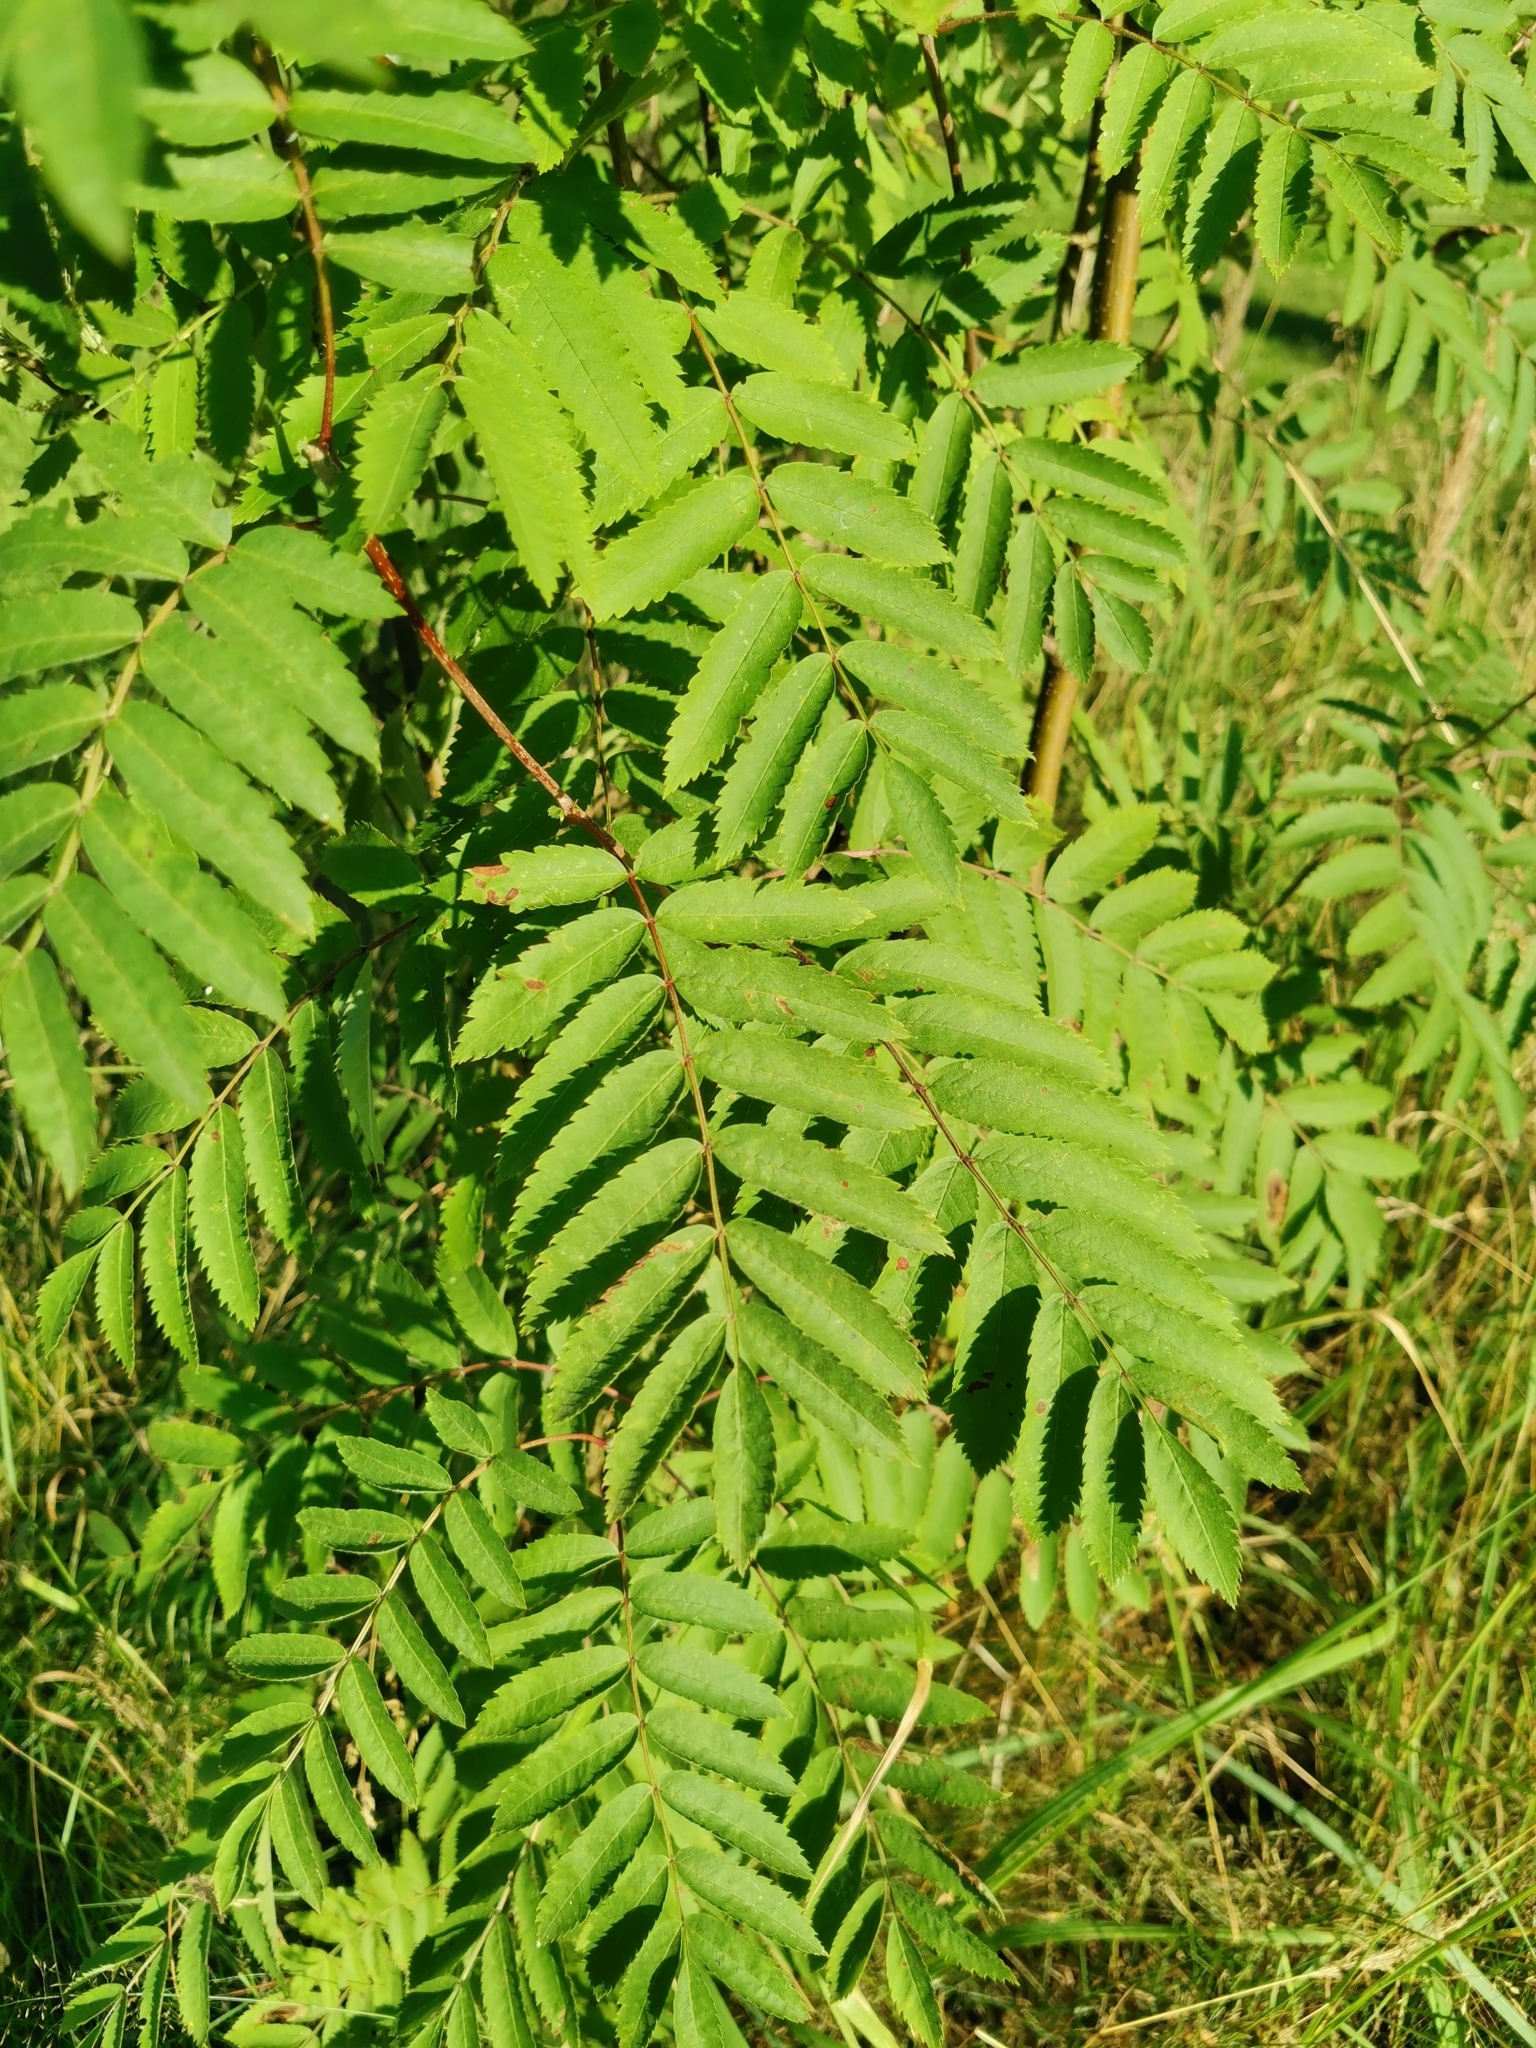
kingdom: Plantae
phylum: Tracheophyta
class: Magnoliopsida
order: Rosales
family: Rosaceae
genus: Sorbus
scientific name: Sorbus aucuparia
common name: Rowan
